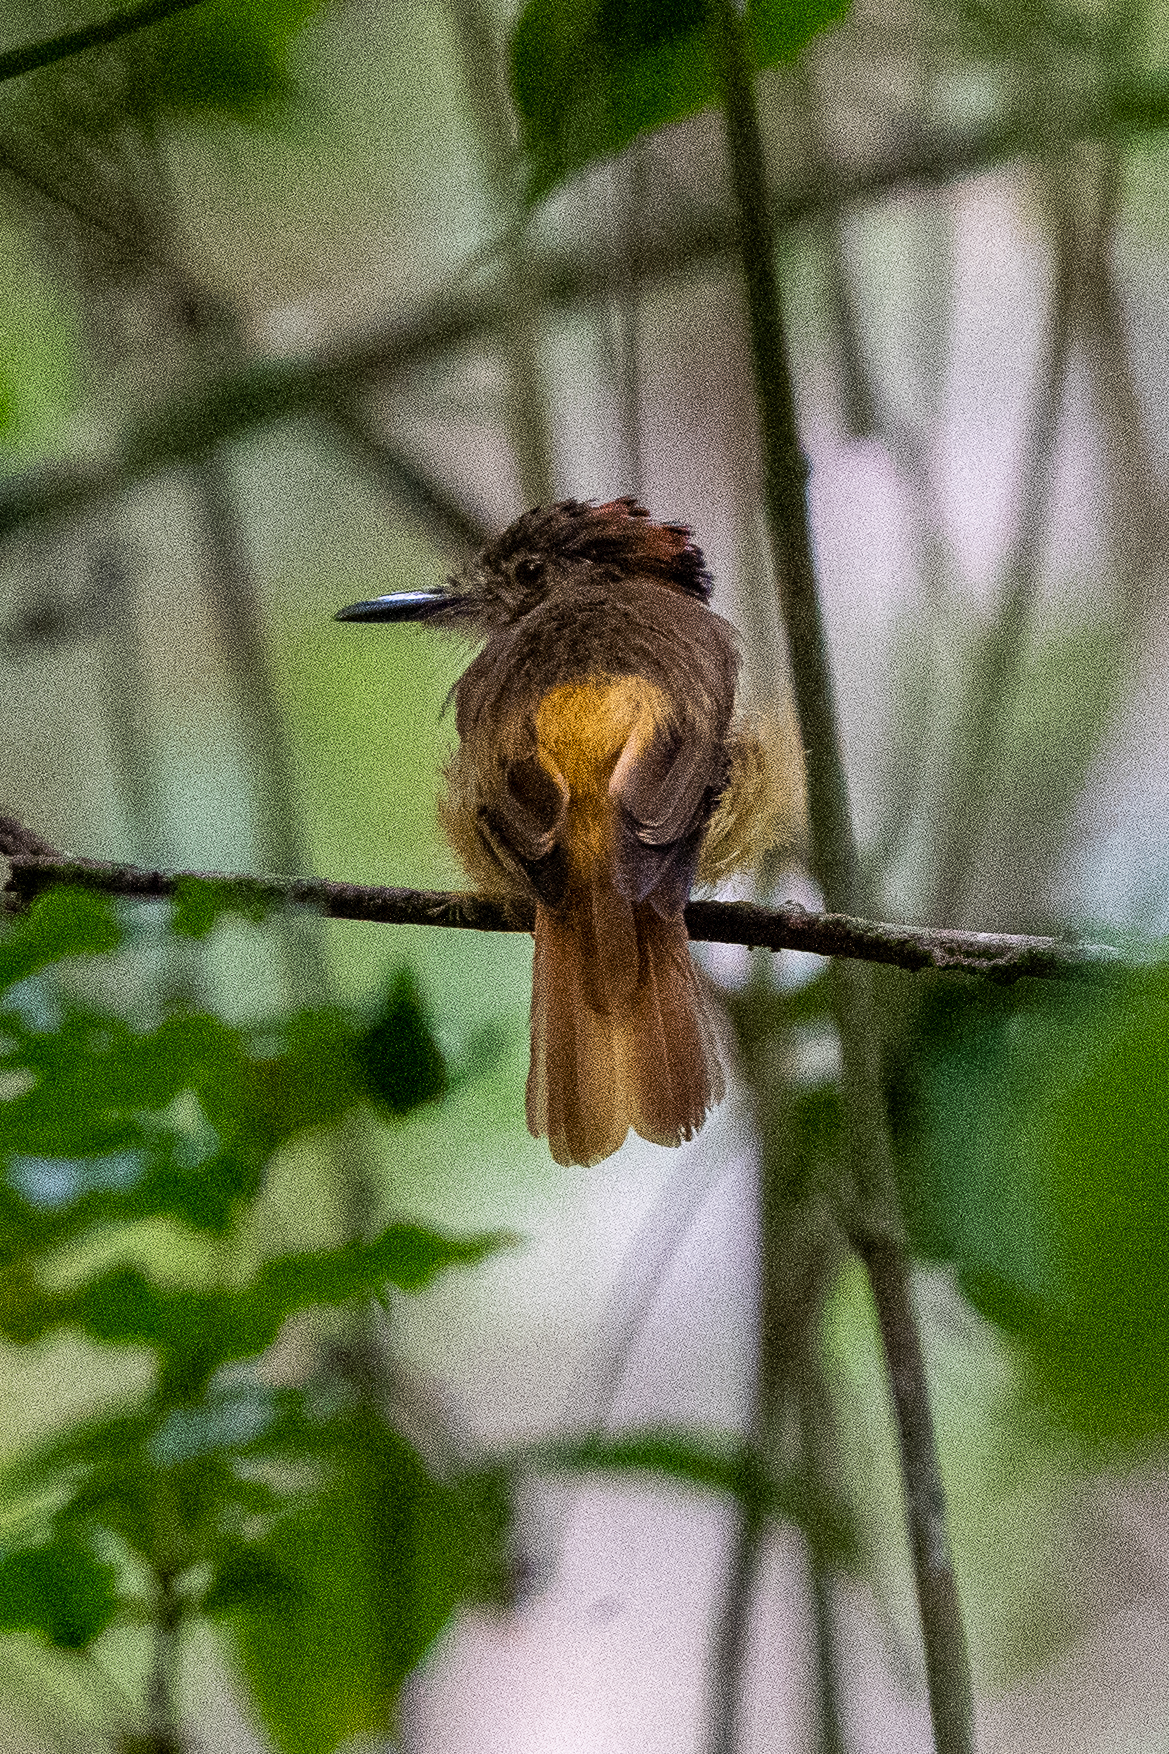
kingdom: Animalia
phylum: Chordata
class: Aves
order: Passeriformes
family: Tyrannidae
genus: Onychorhynchus
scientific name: Onychorhynchus coronatus
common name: Royal flycatcher
